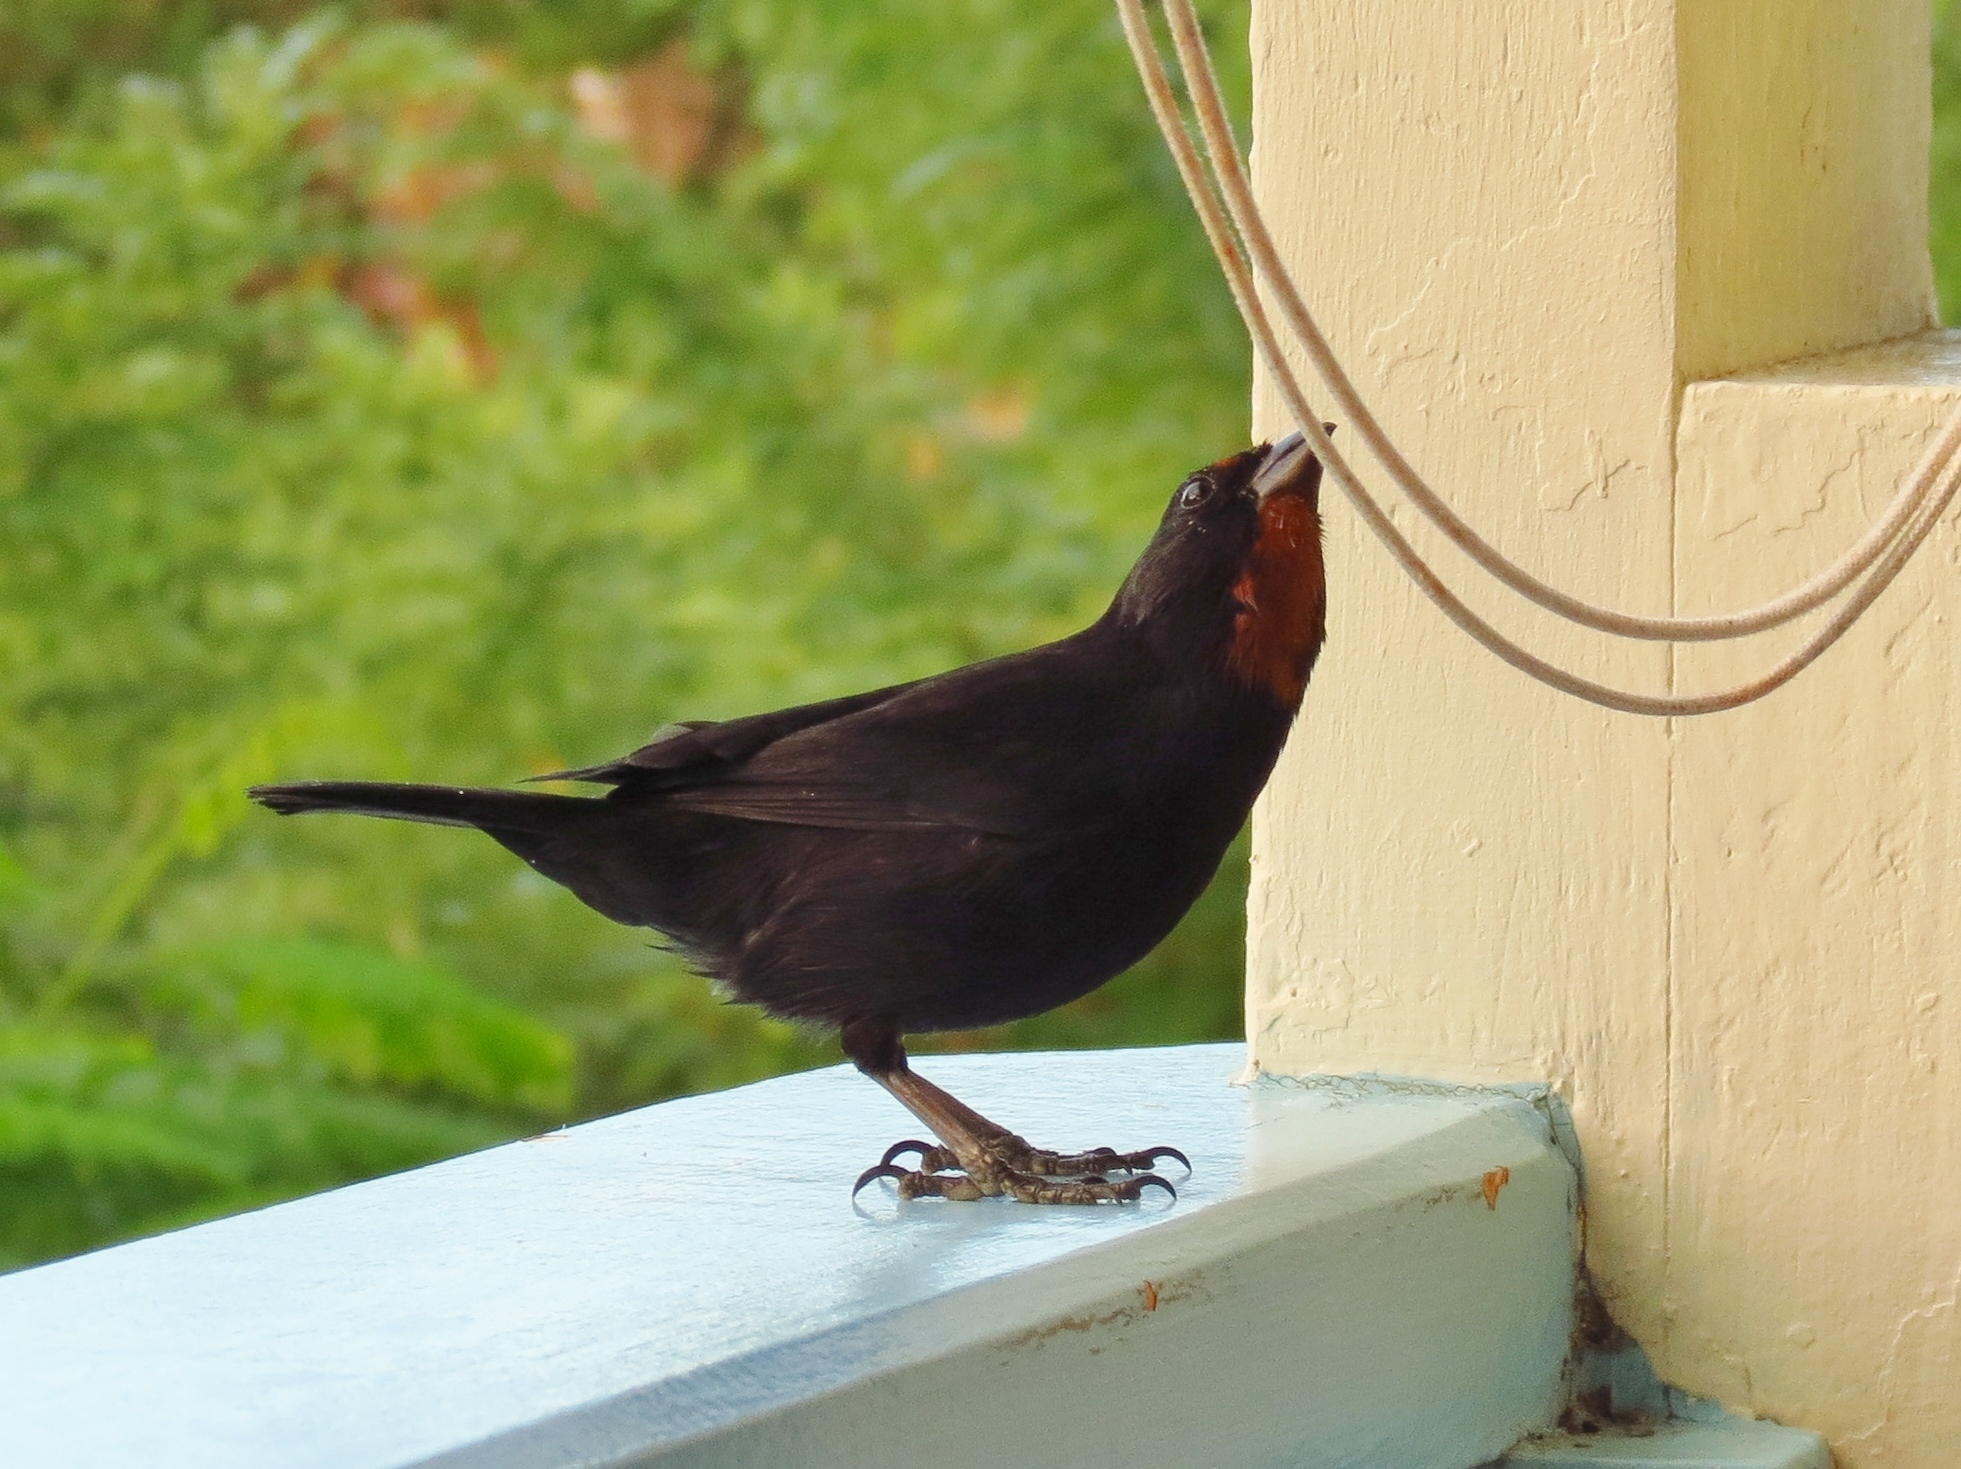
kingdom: Animalia
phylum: Chordata
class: Aves
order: Passeriformes
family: Thraupidae
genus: Loxigilla
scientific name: Loxigilla noctis
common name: Lesser antillean bullfinch
